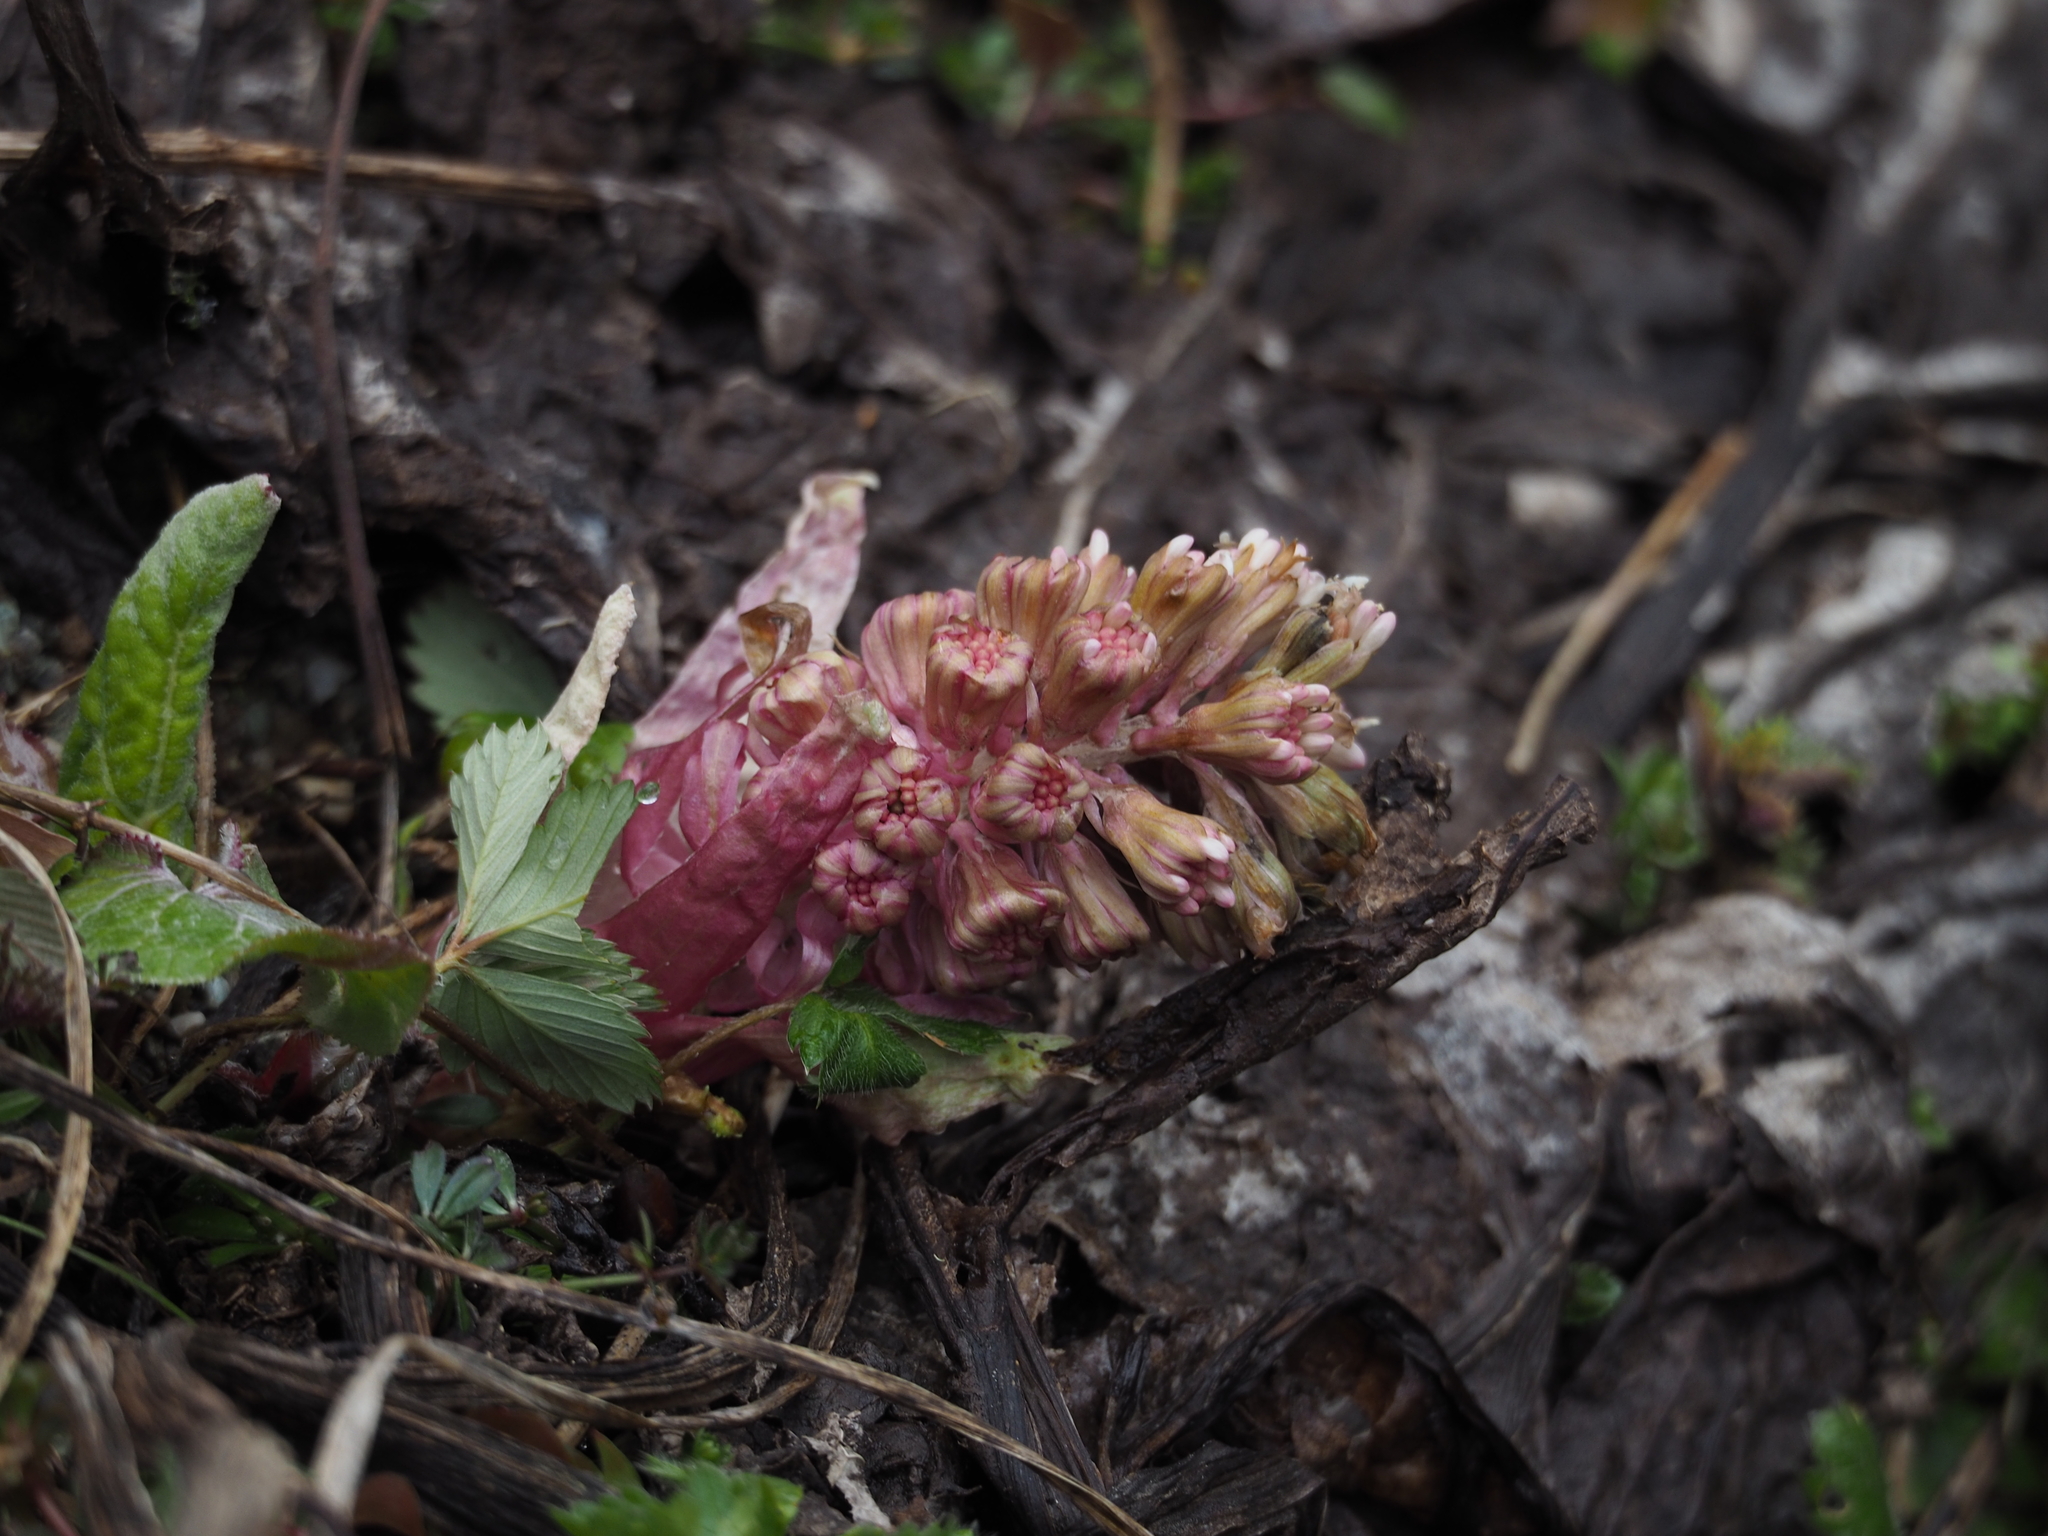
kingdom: Plantae
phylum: Tracheophyta
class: Magnoliopsida
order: Asterales
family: Asteraceae
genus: Petasites
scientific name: Petasites hybridus
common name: Butterbur
